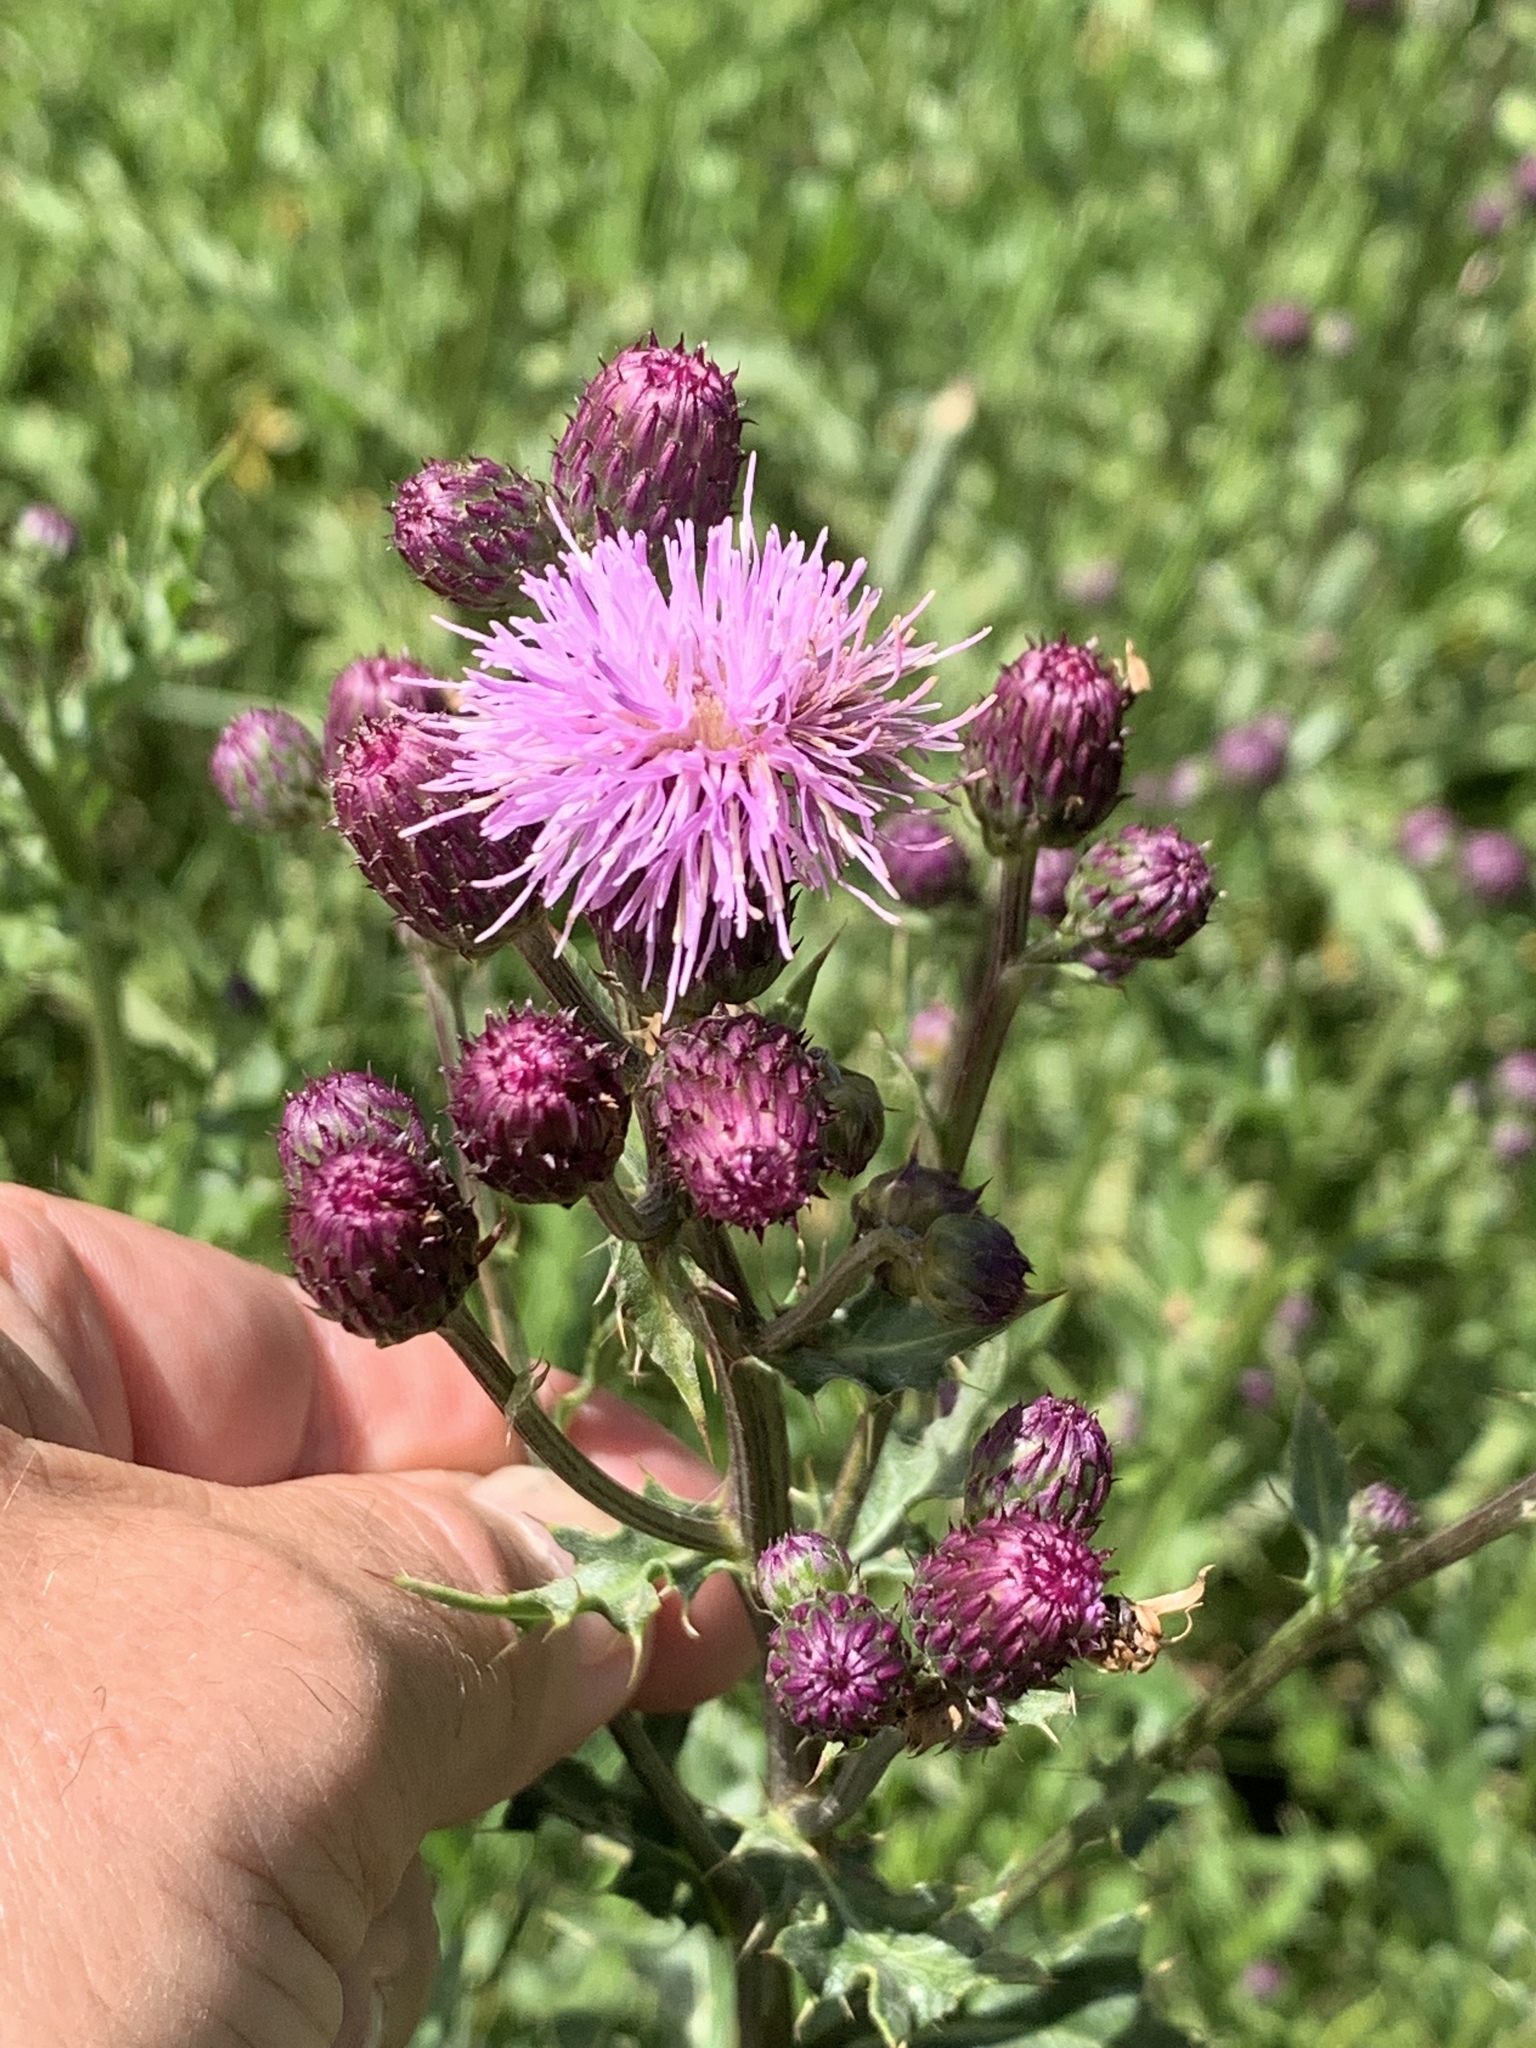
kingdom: Plantae
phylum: Tracheophyta
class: Magnoliopsida
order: Asterales
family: Asteraceae
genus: Cirsium
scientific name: Cirsium arvense
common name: Creeping thistle
